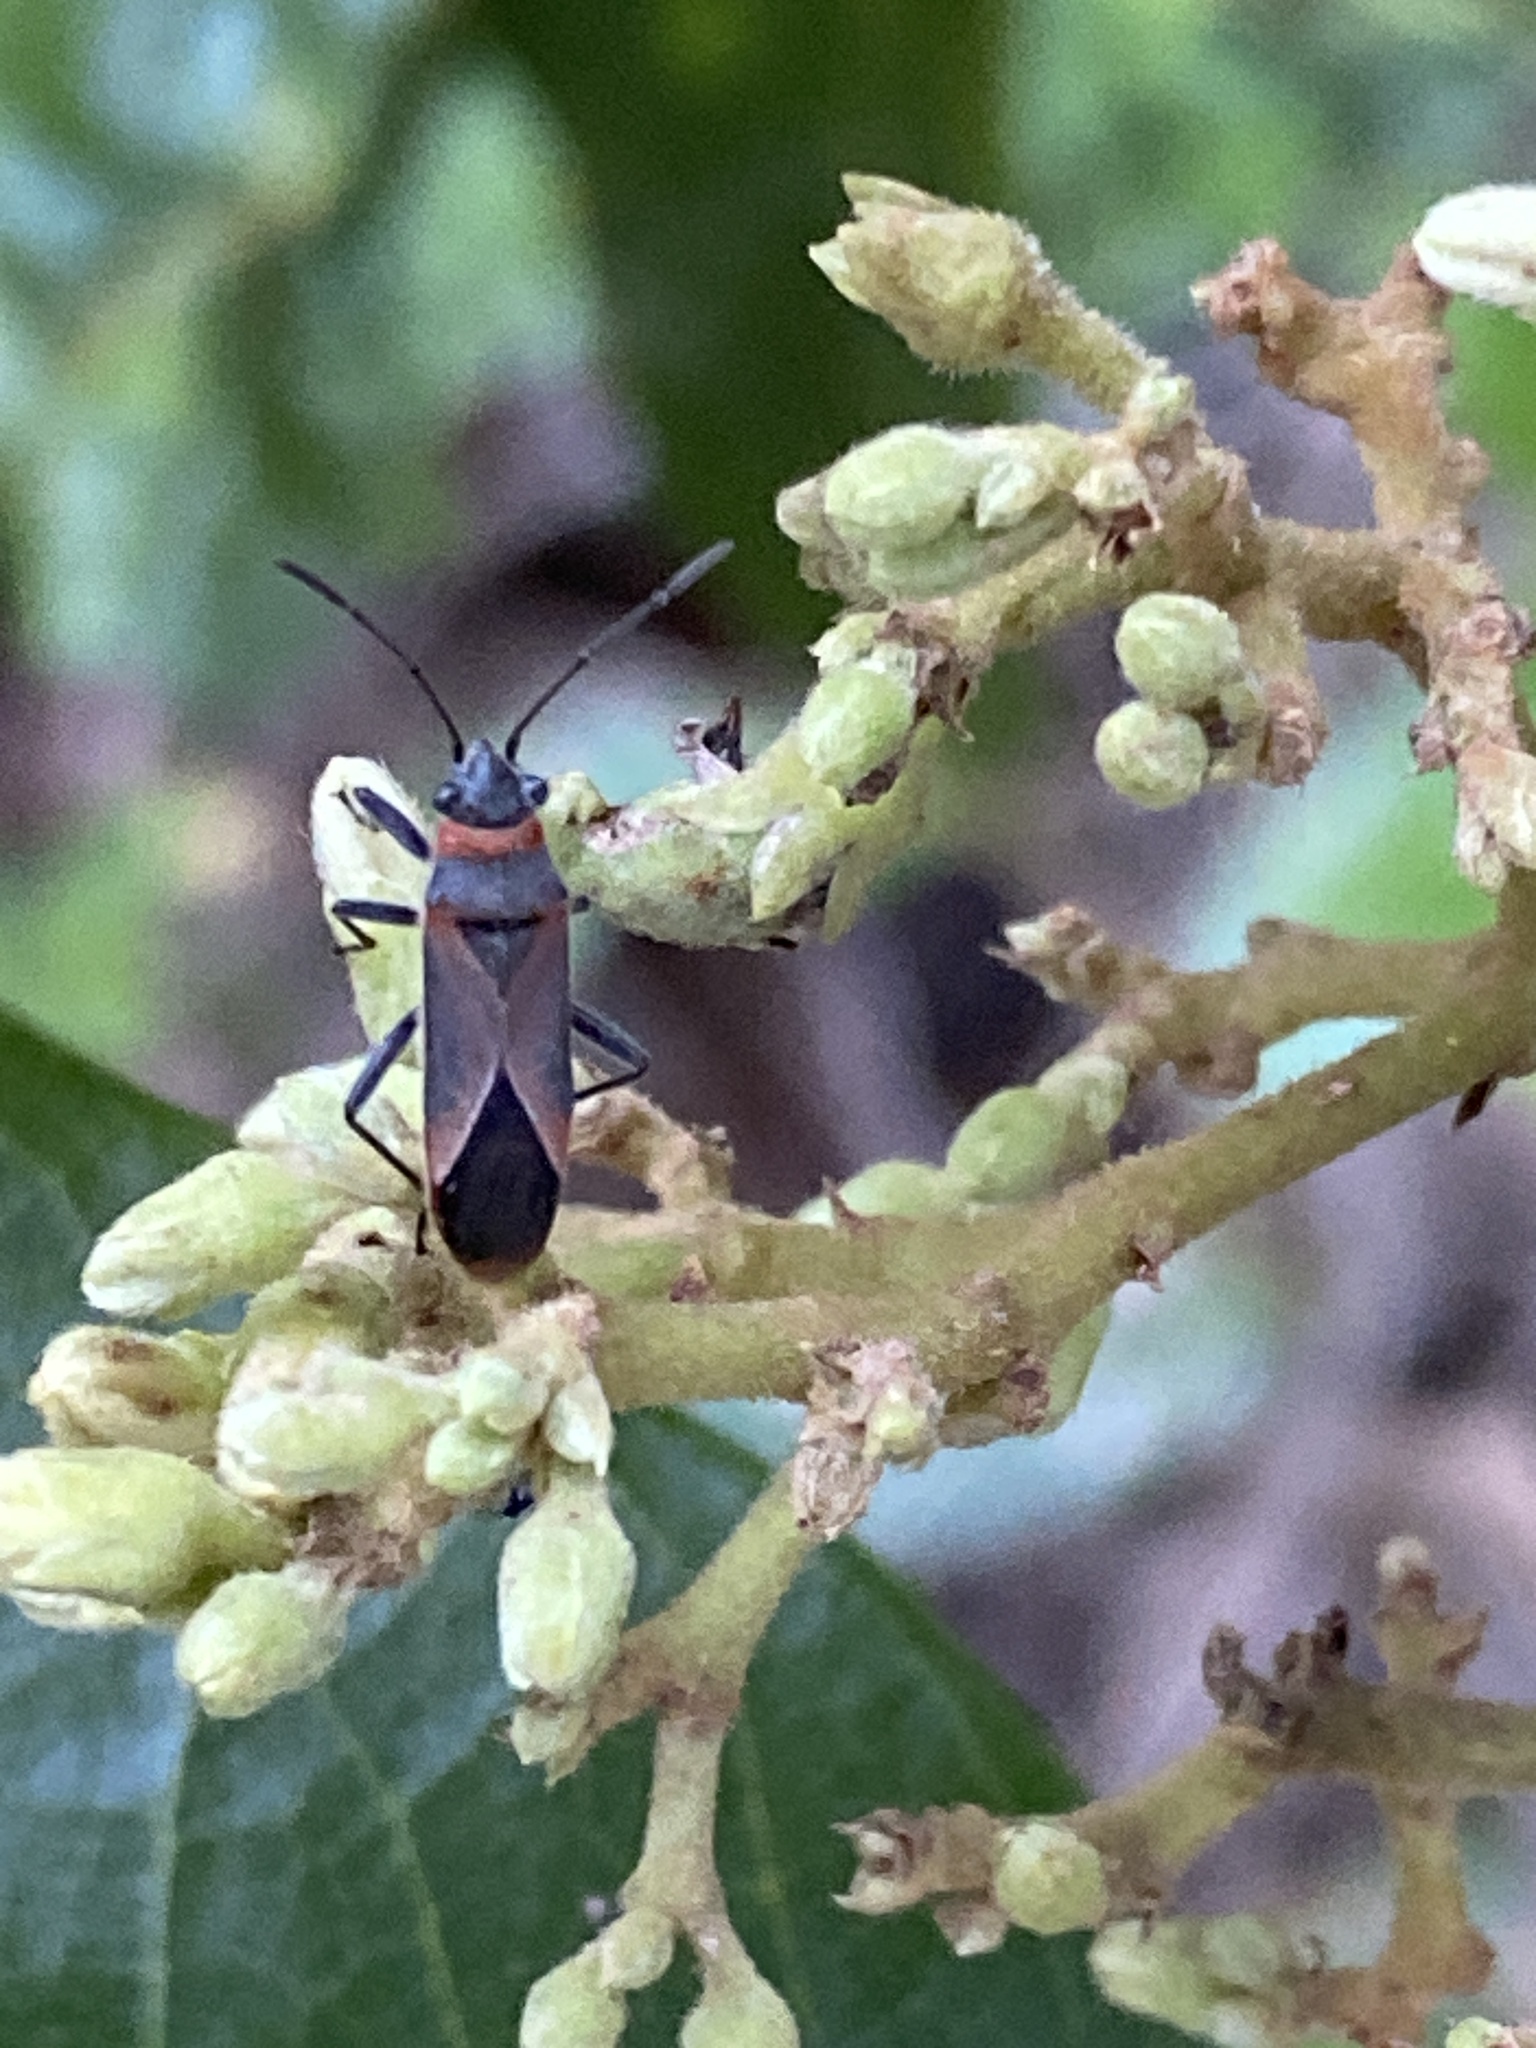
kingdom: Animalia
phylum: Arthropoda
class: Insecta
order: Hemiptera
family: Lygaeidae
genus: Arocatus
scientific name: Arocatus rusticus
